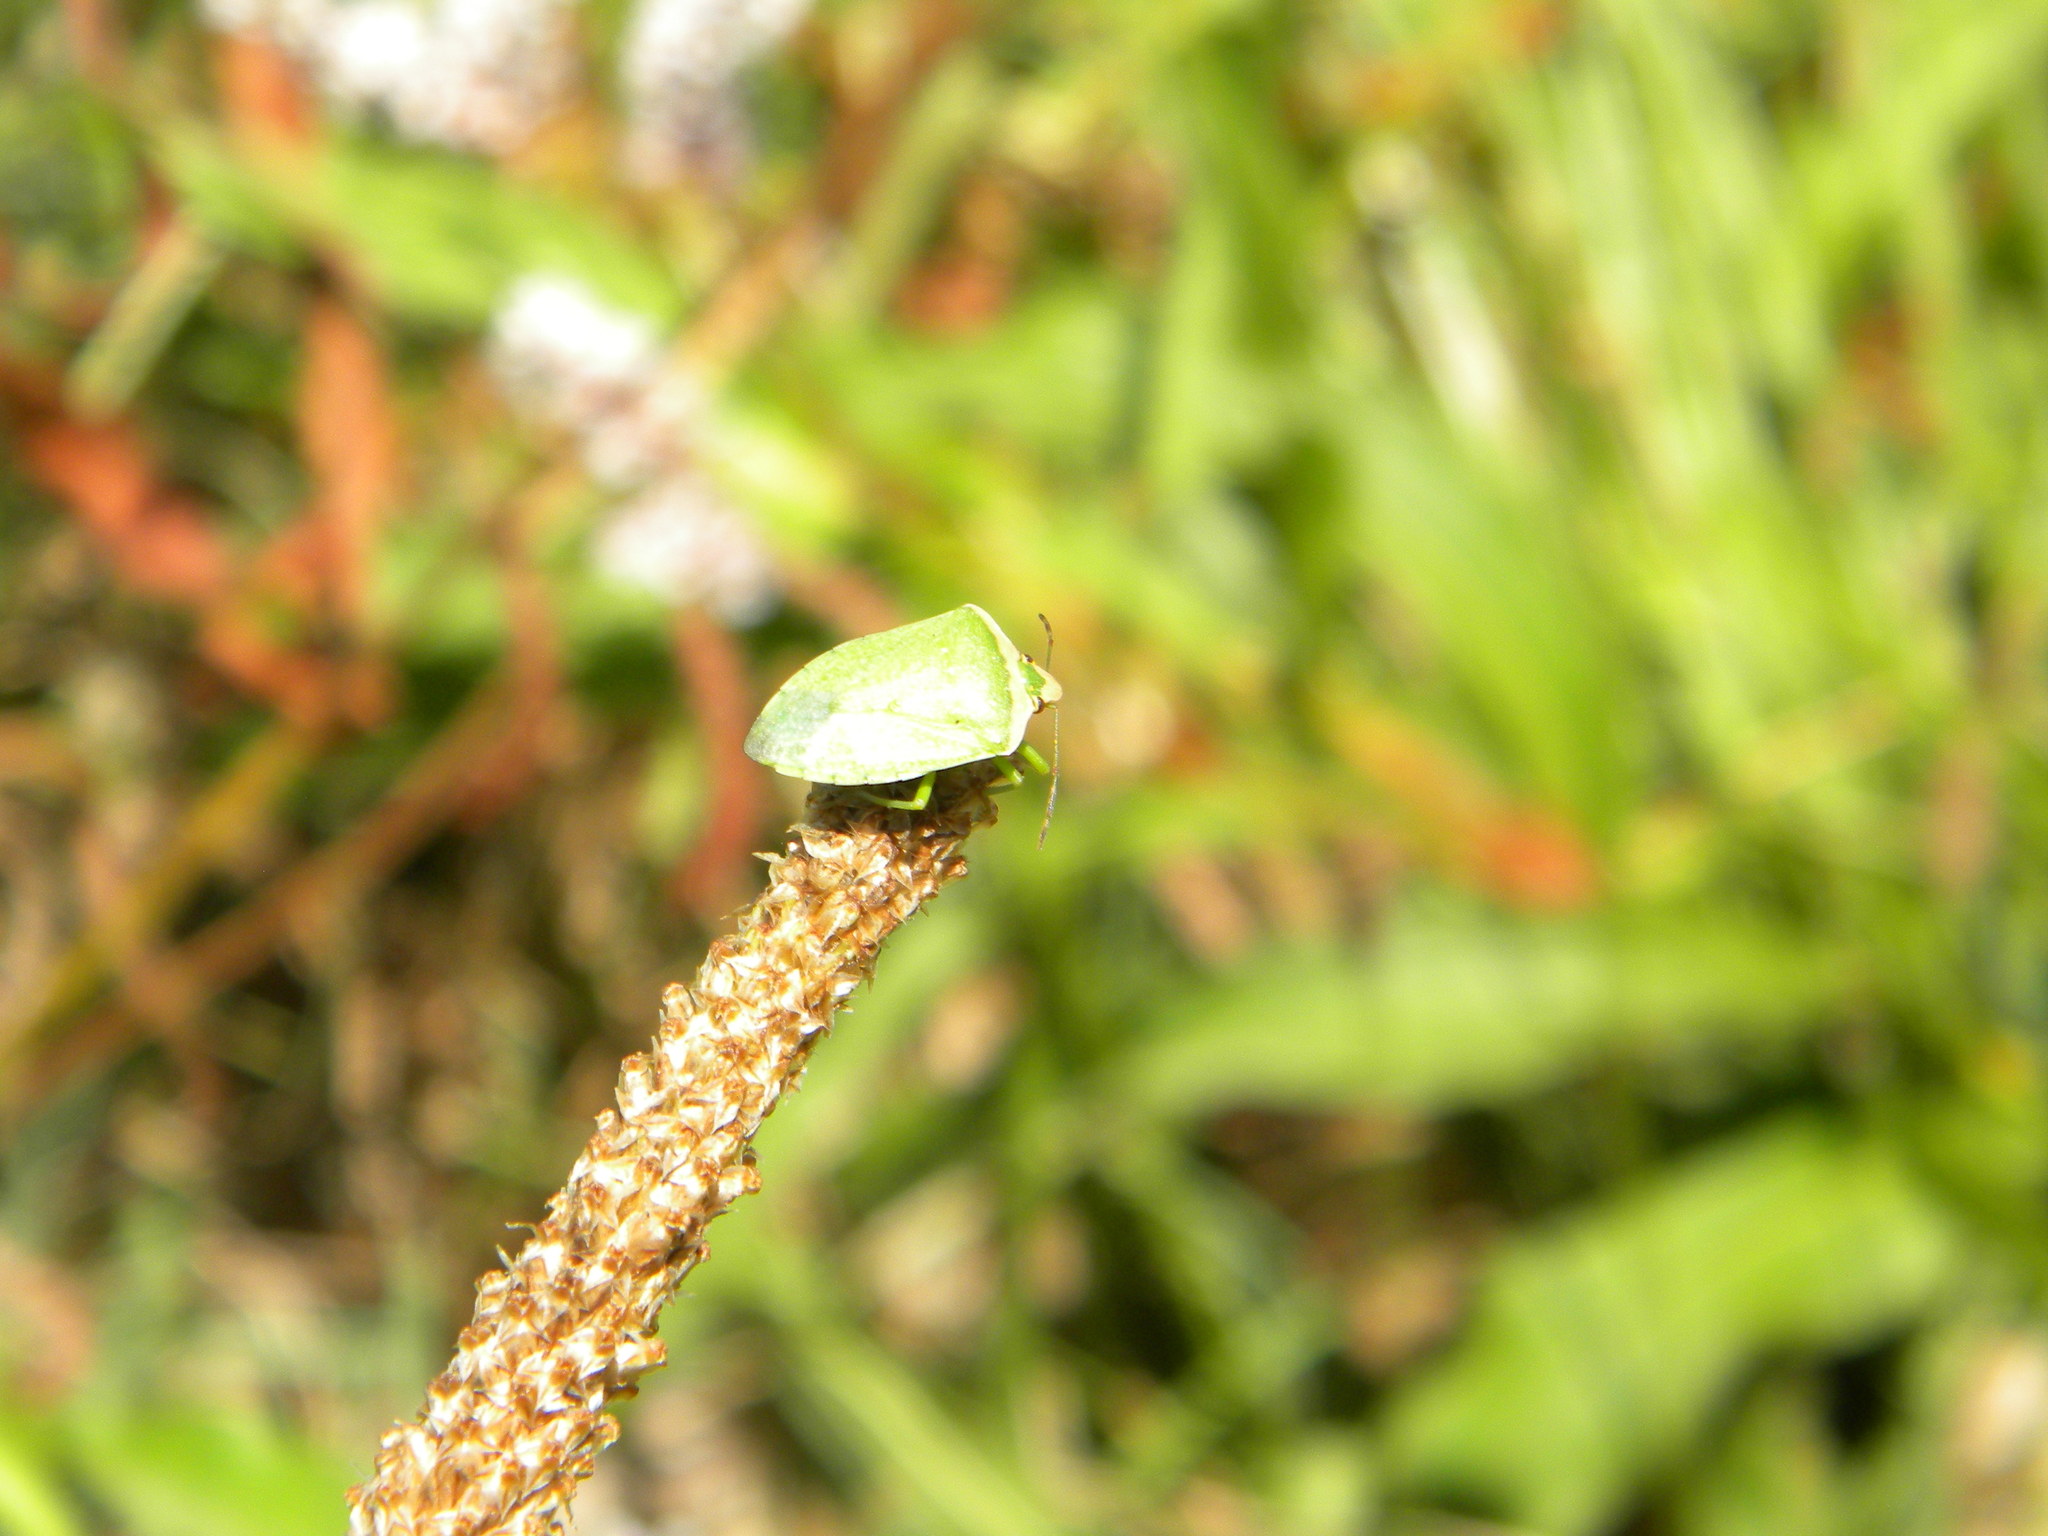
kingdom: Animalia
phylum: Arthropoda
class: Insecta
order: Hemiptera
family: Pentatomidae
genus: Nezara
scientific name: Nezara viridula
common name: Southern green stink bug
